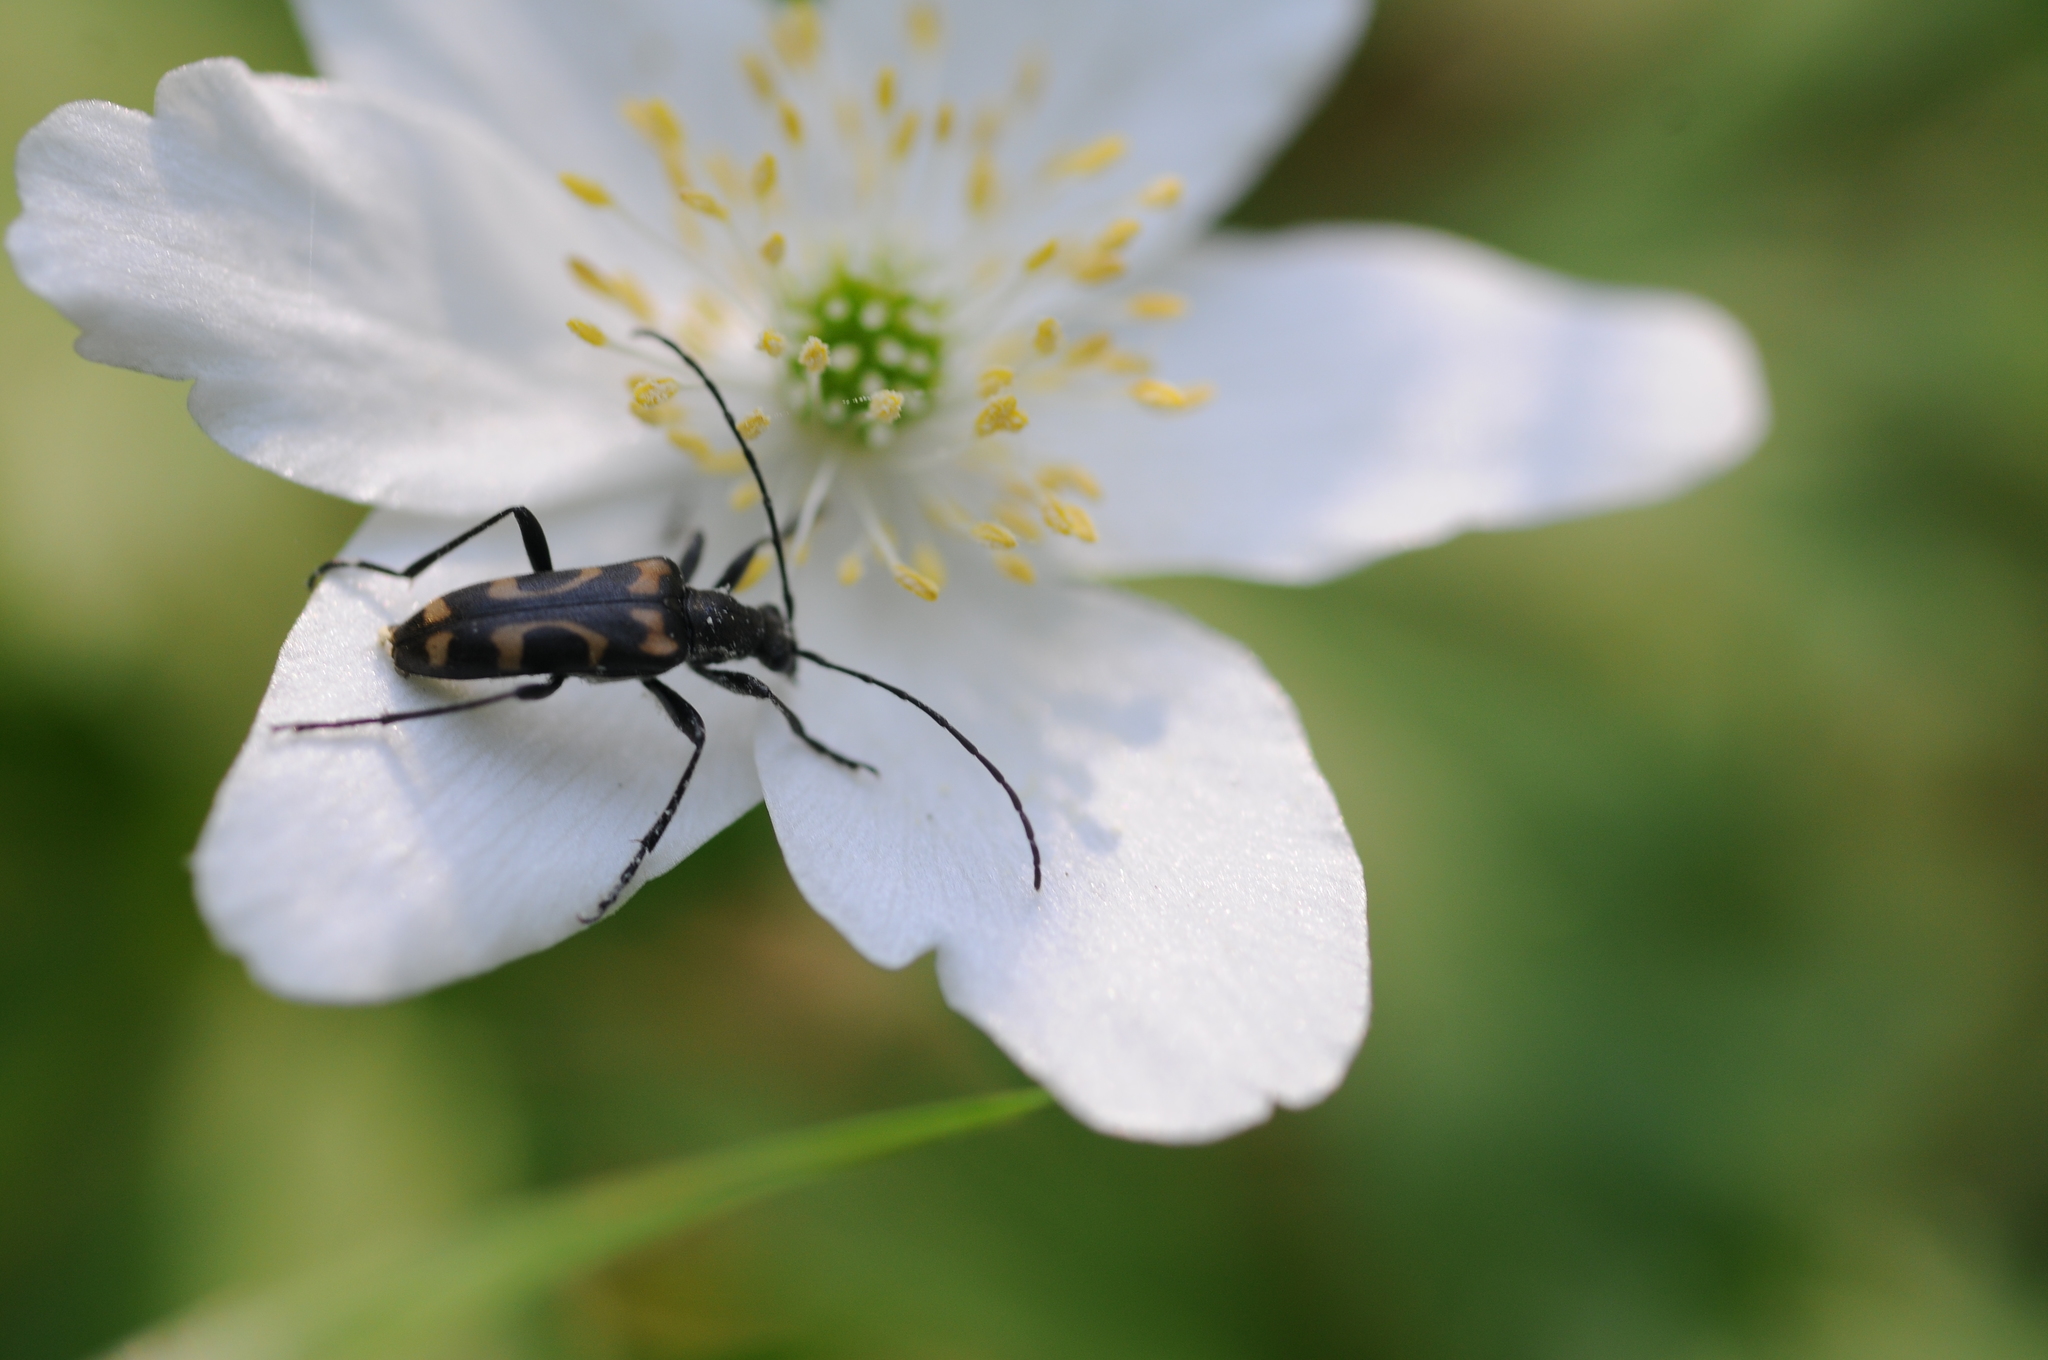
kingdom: Animalia
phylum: Arthropoda
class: Insecta
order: Coleoptera
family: Cerambycidae
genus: Evodinus
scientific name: Evodinus borealis
